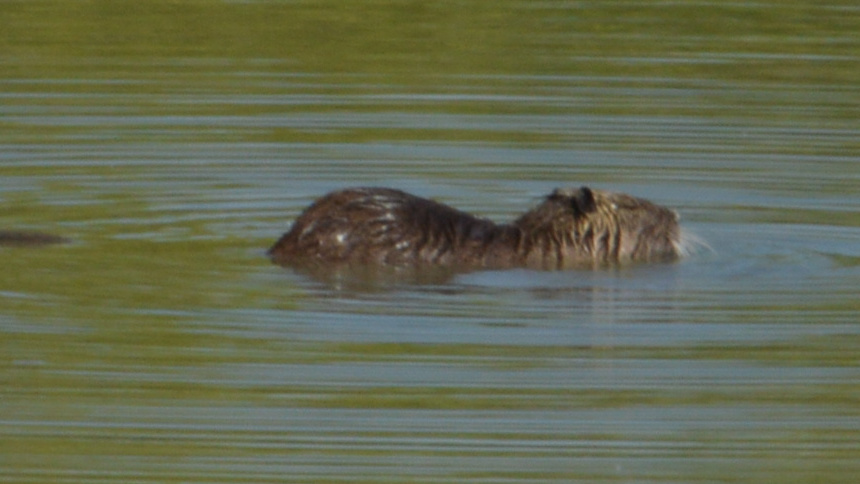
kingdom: Animalia
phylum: Chordata
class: Mammalia
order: Rodentia
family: Myocastoridae
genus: Myocastor
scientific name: Myocastor coypus
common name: Coypu
